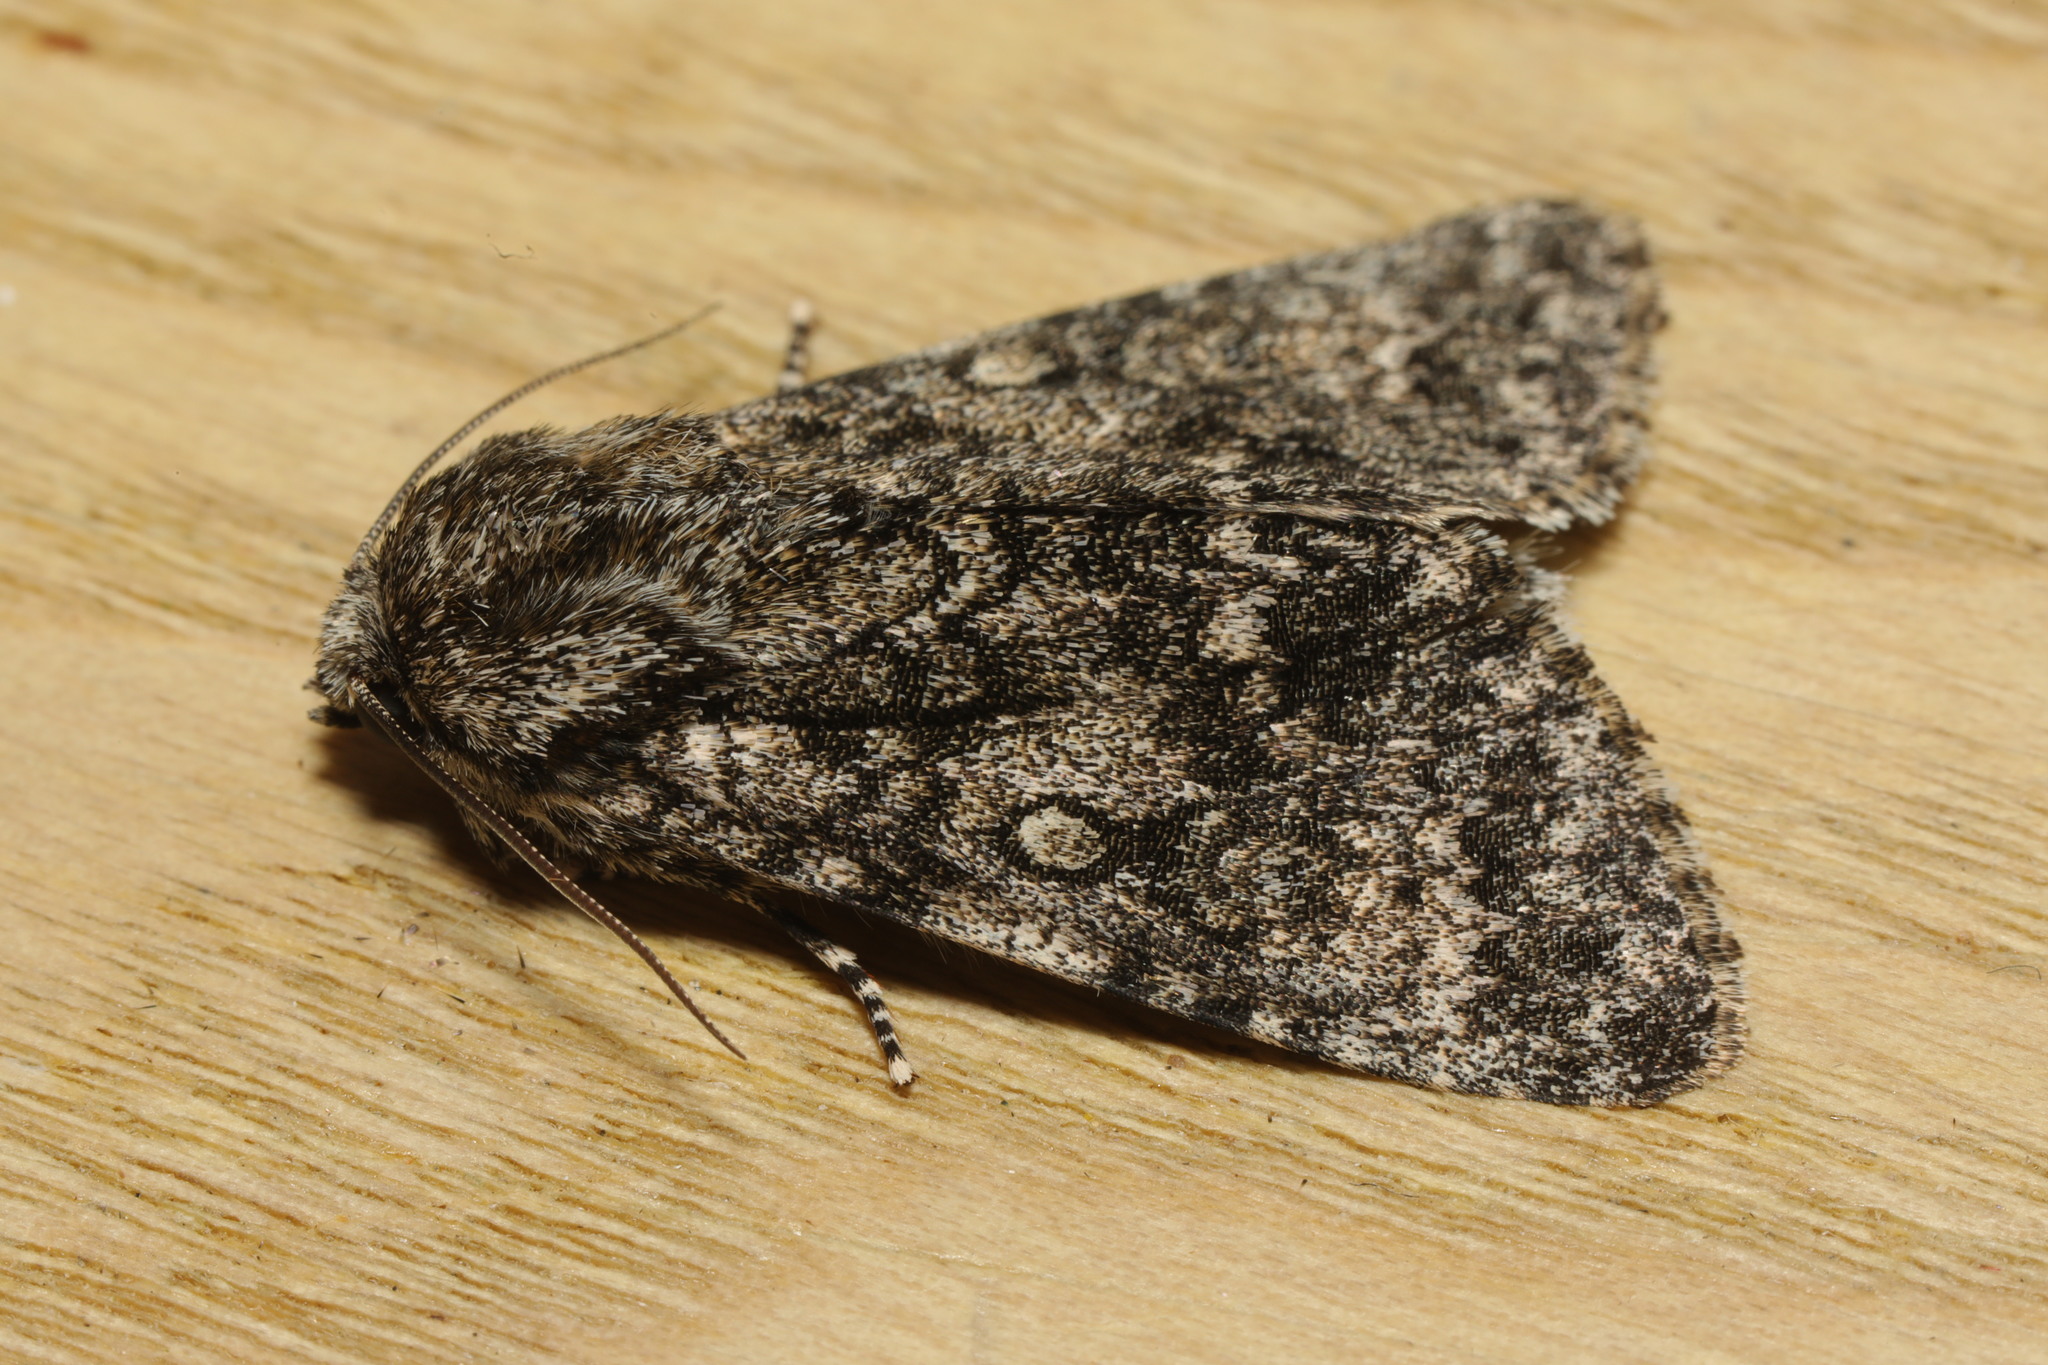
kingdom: Animalia
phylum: Arthropoda
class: Insecta
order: Lepidoptera
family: Noctuidae
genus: Acronicta
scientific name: Acronicta megacephala
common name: Poplar grey
